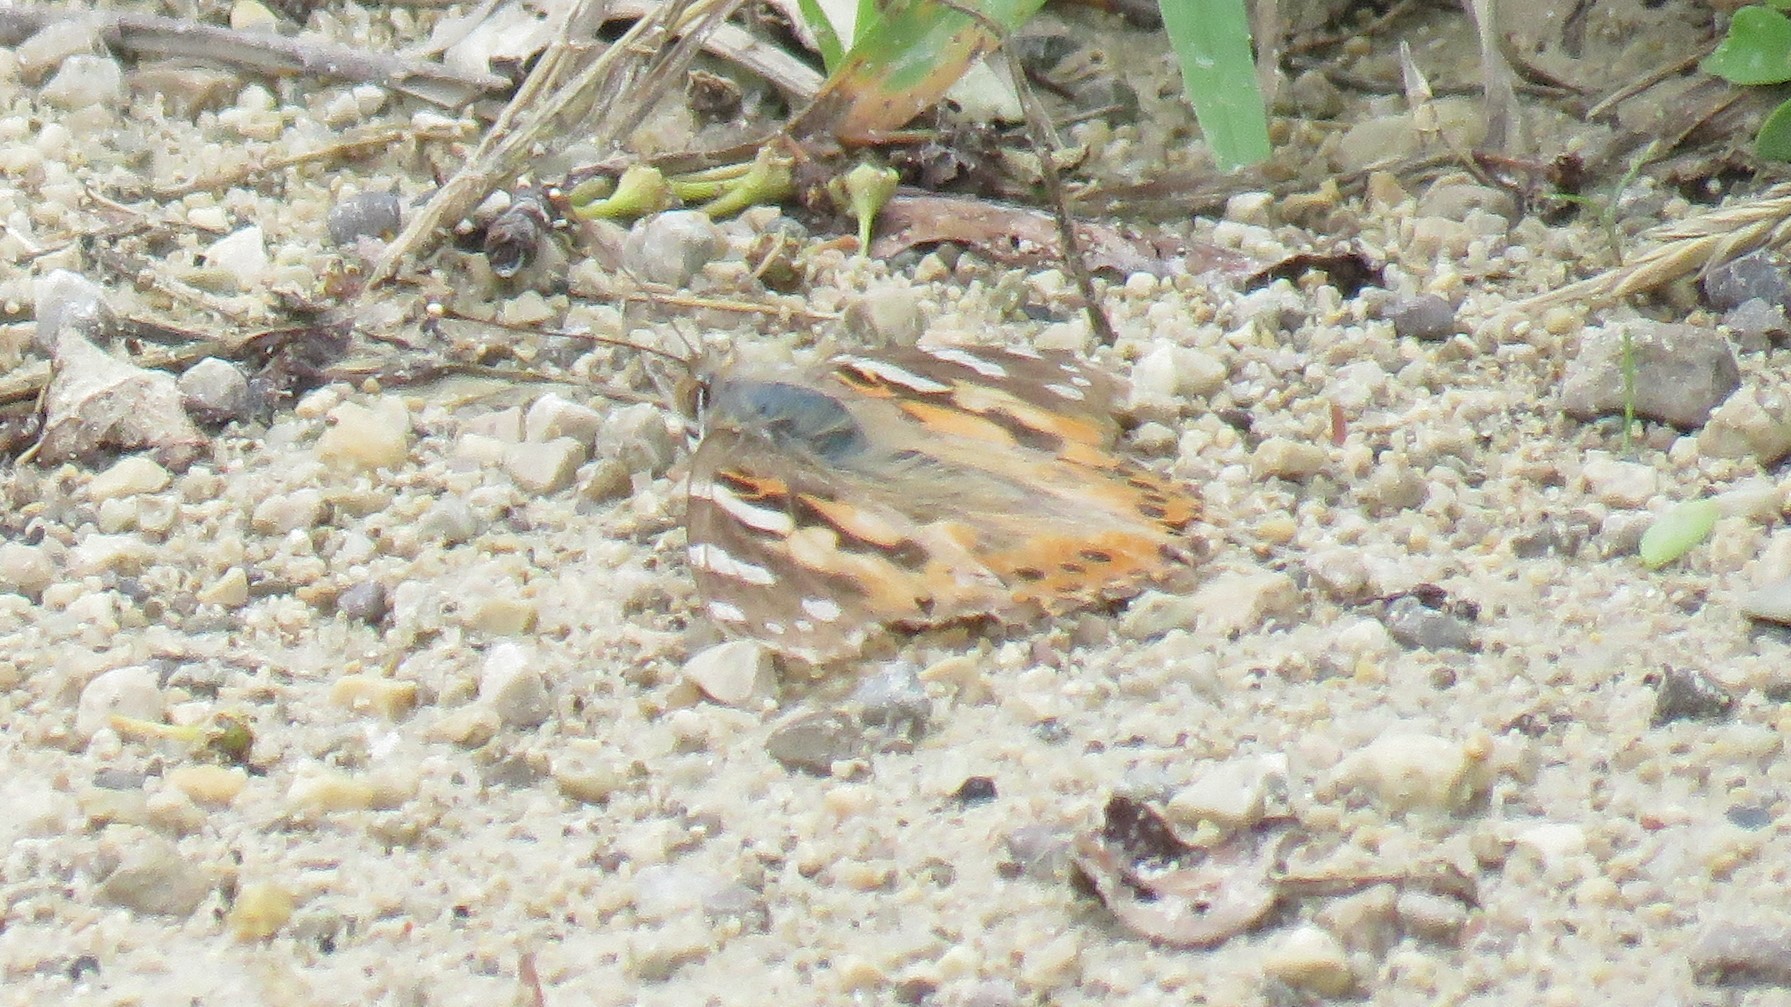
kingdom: Animalia
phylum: Arthropoda
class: Insecta
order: Lepidoptera
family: Nymphalidae
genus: Vanessa
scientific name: Vanessa cardui
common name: Painted lady
